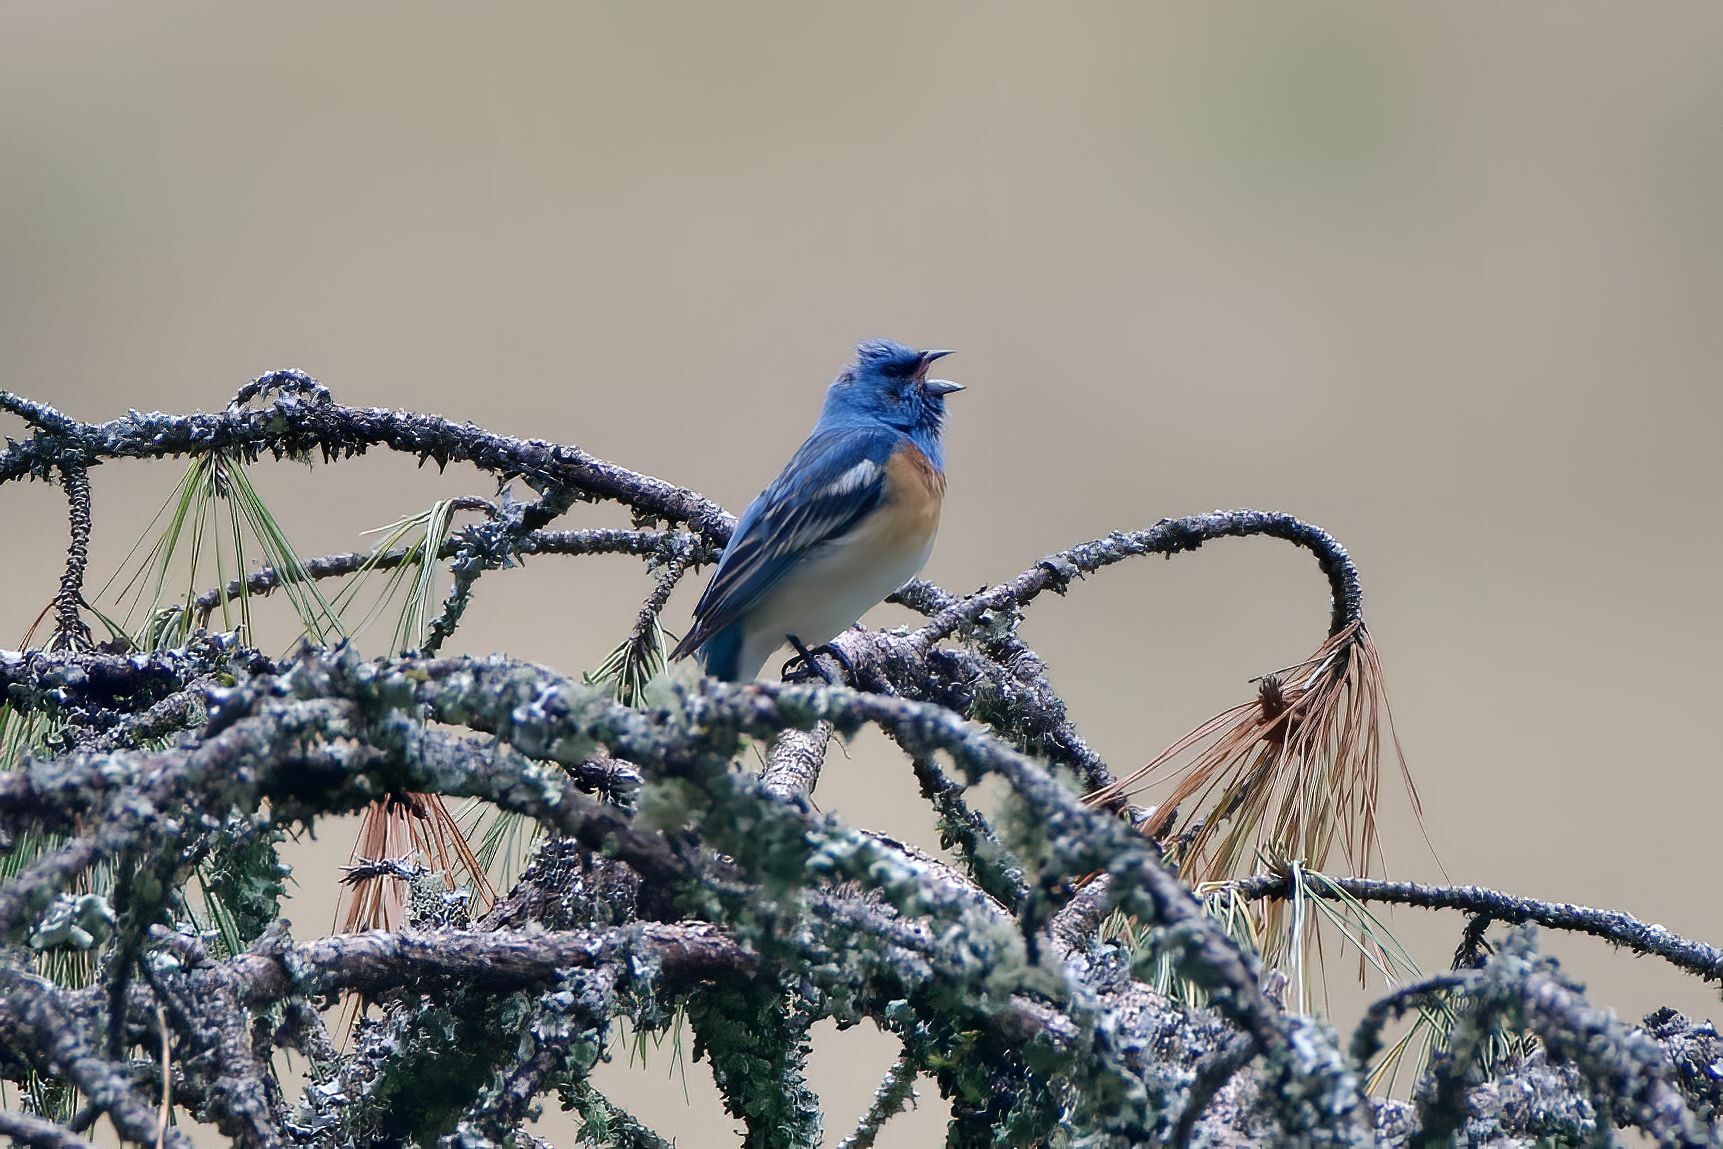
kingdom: Animalia
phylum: Chordata
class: Aves
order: Passeriformes
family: Cardinalidae
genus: Passerina
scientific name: Passerina amoena
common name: Lazuli bunting
